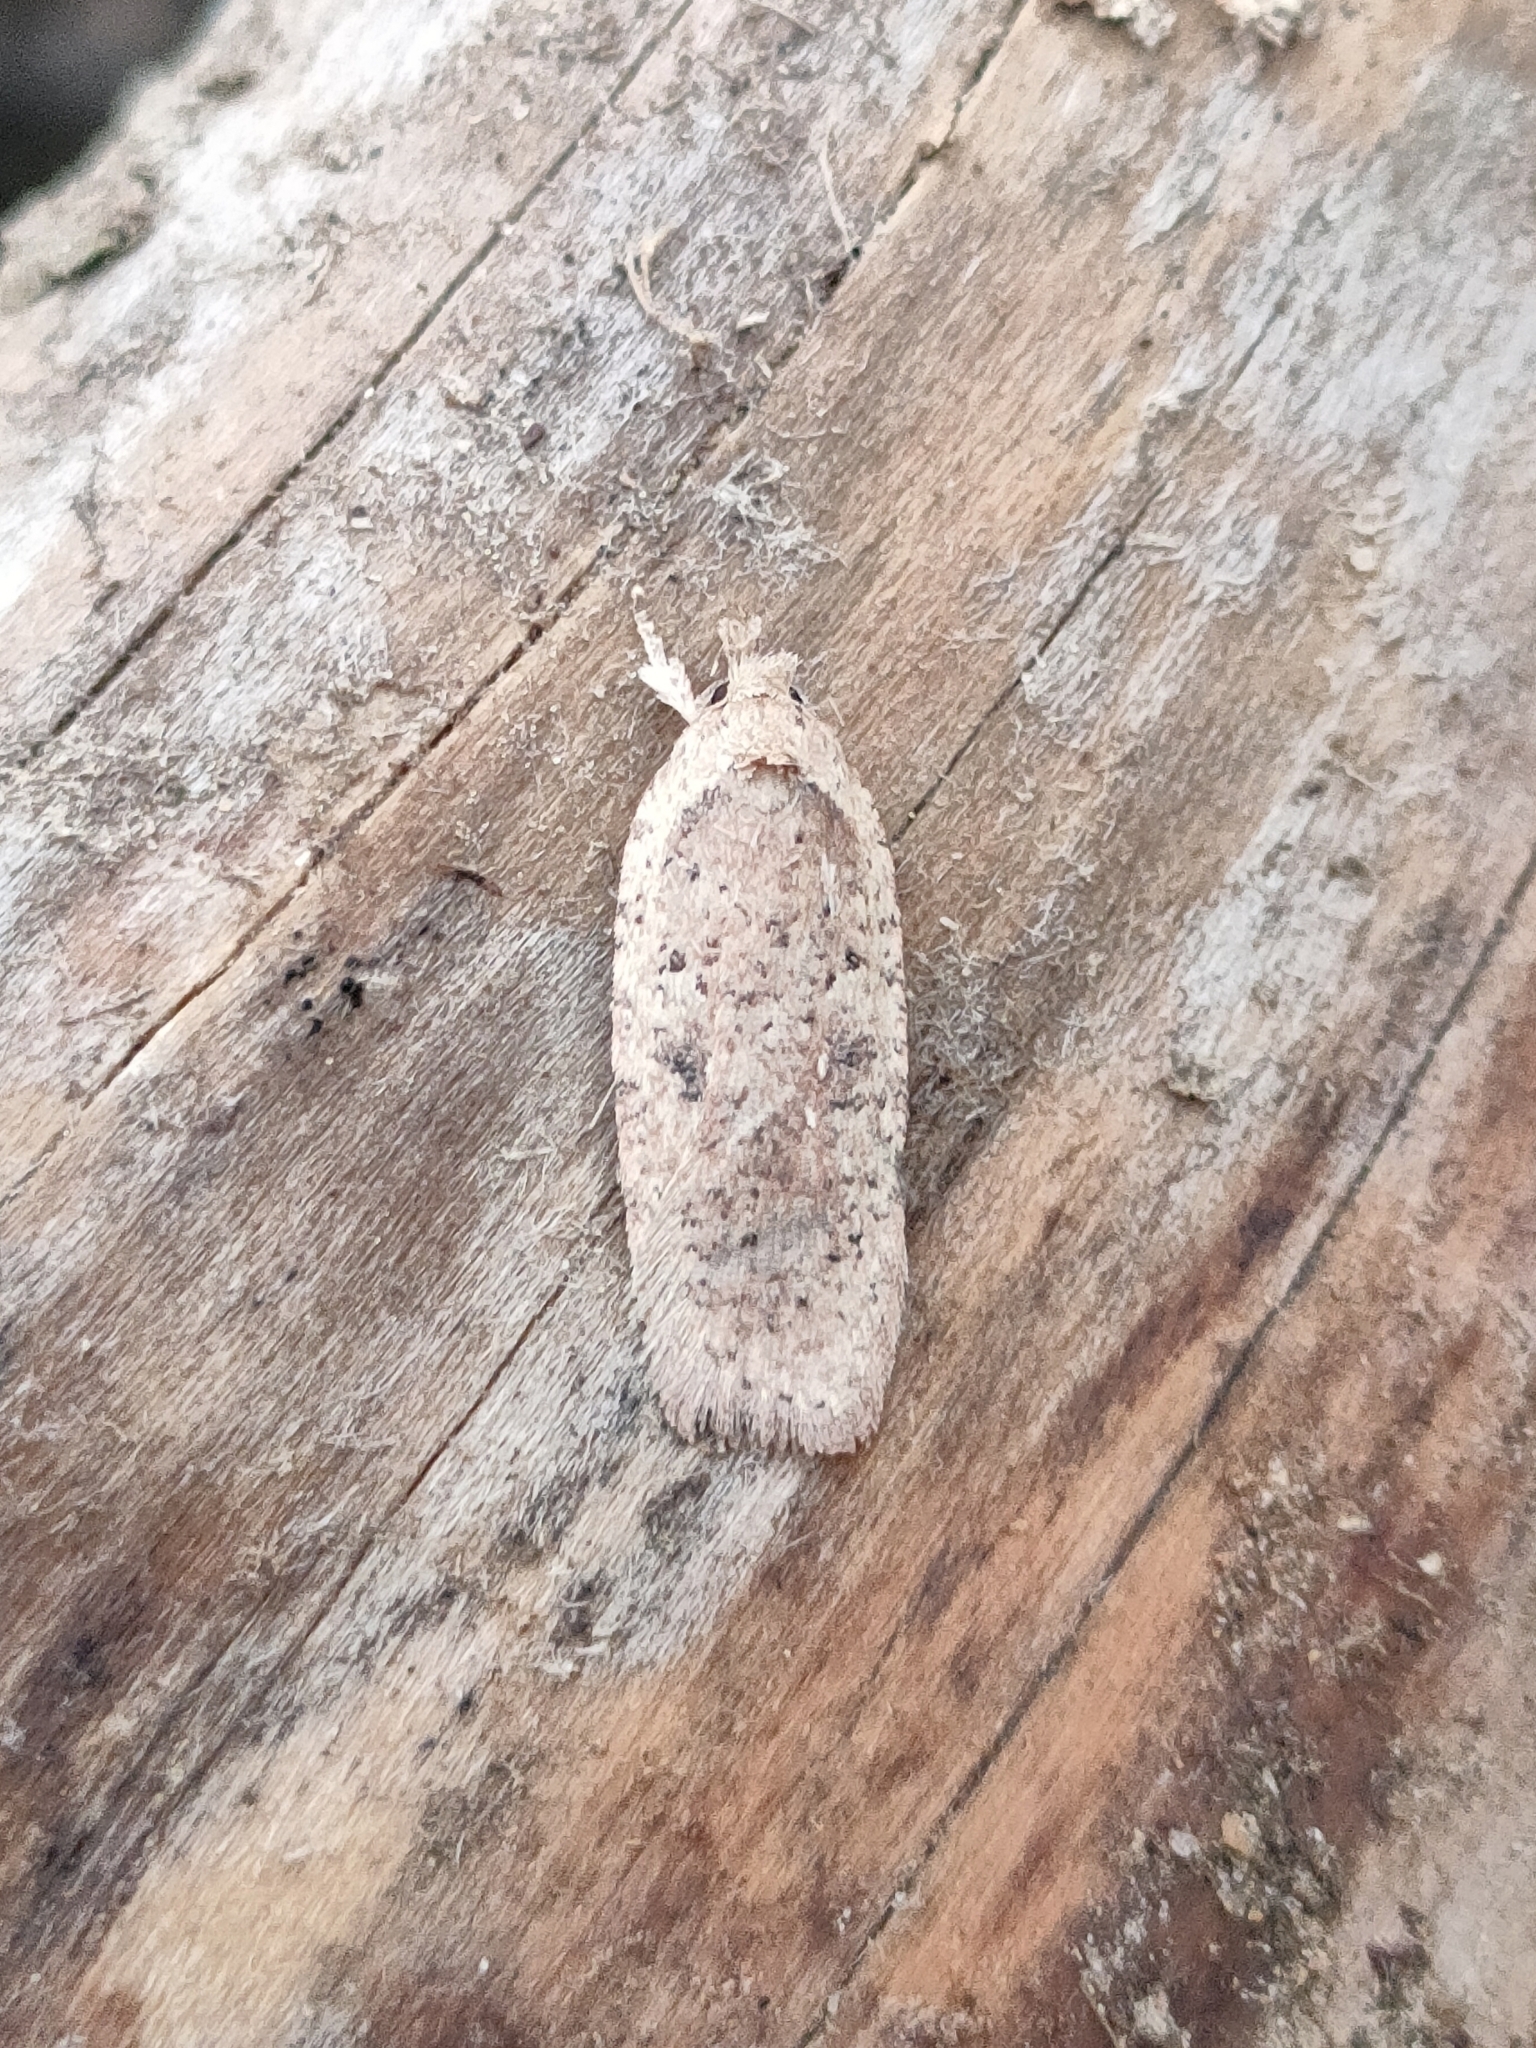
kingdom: Animalia
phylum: Arthropoda
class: Insecta
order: Lepidoptera
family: Depressariidae
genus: Agonopterix
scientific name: Agonopterix scopariella
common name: Broom flat-body
